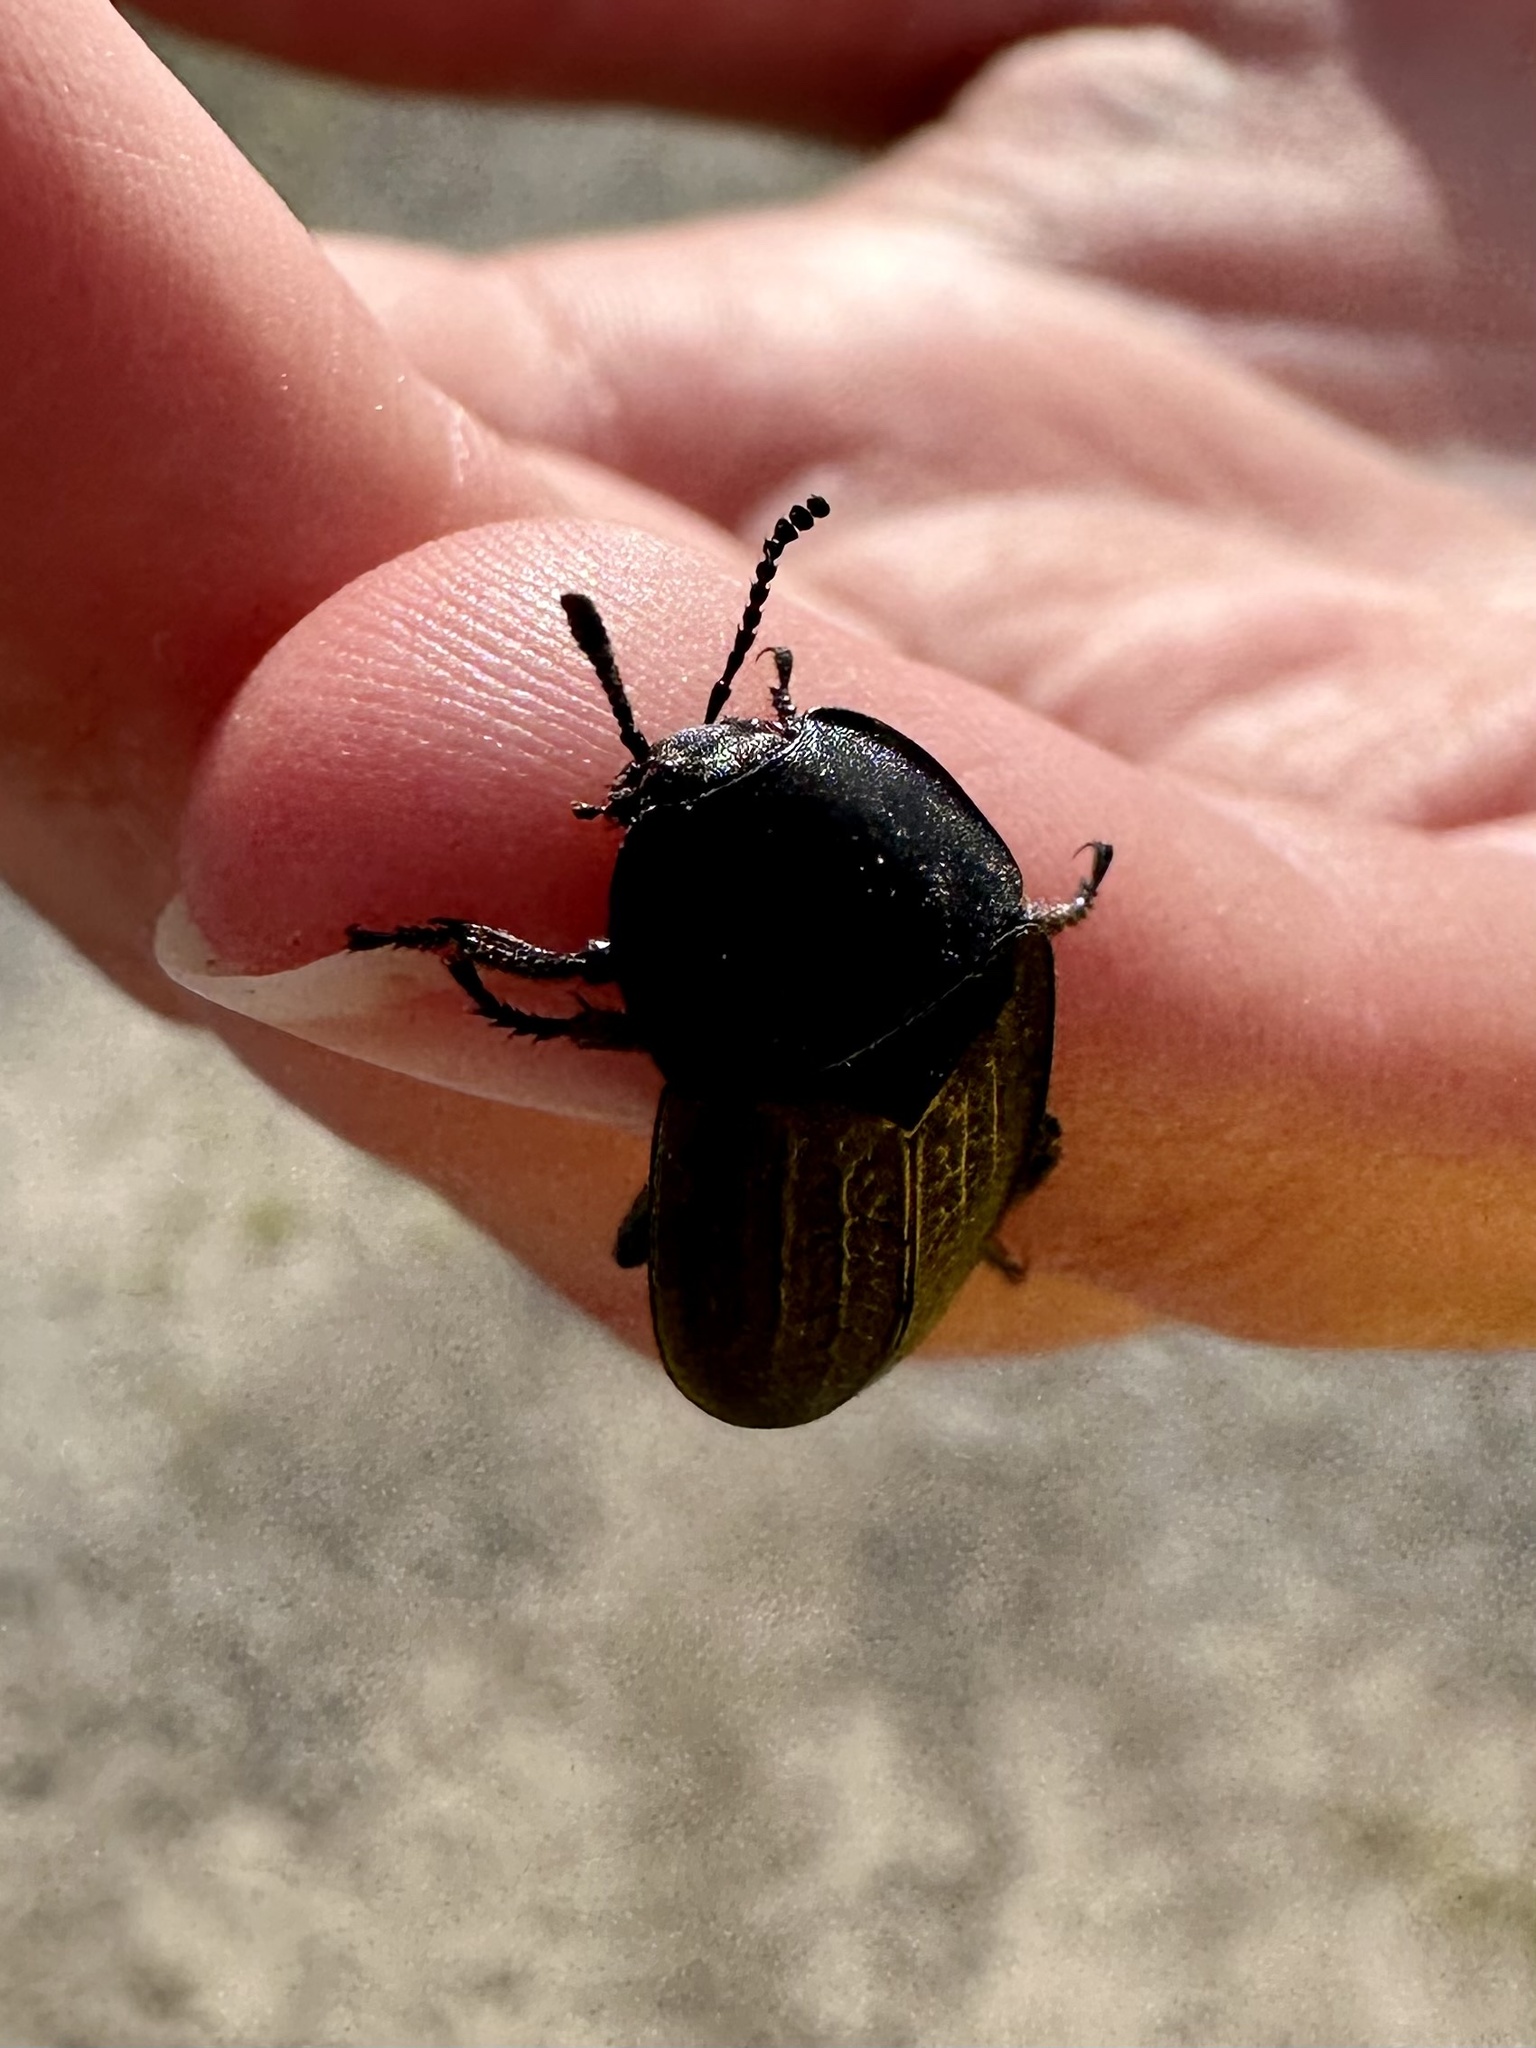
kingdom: Animalia
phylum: Arthropoda
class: Insecta
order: Coleoptera
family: Staphylinidae
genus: Heterosilpha
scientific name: Heterosilpha ramosa
